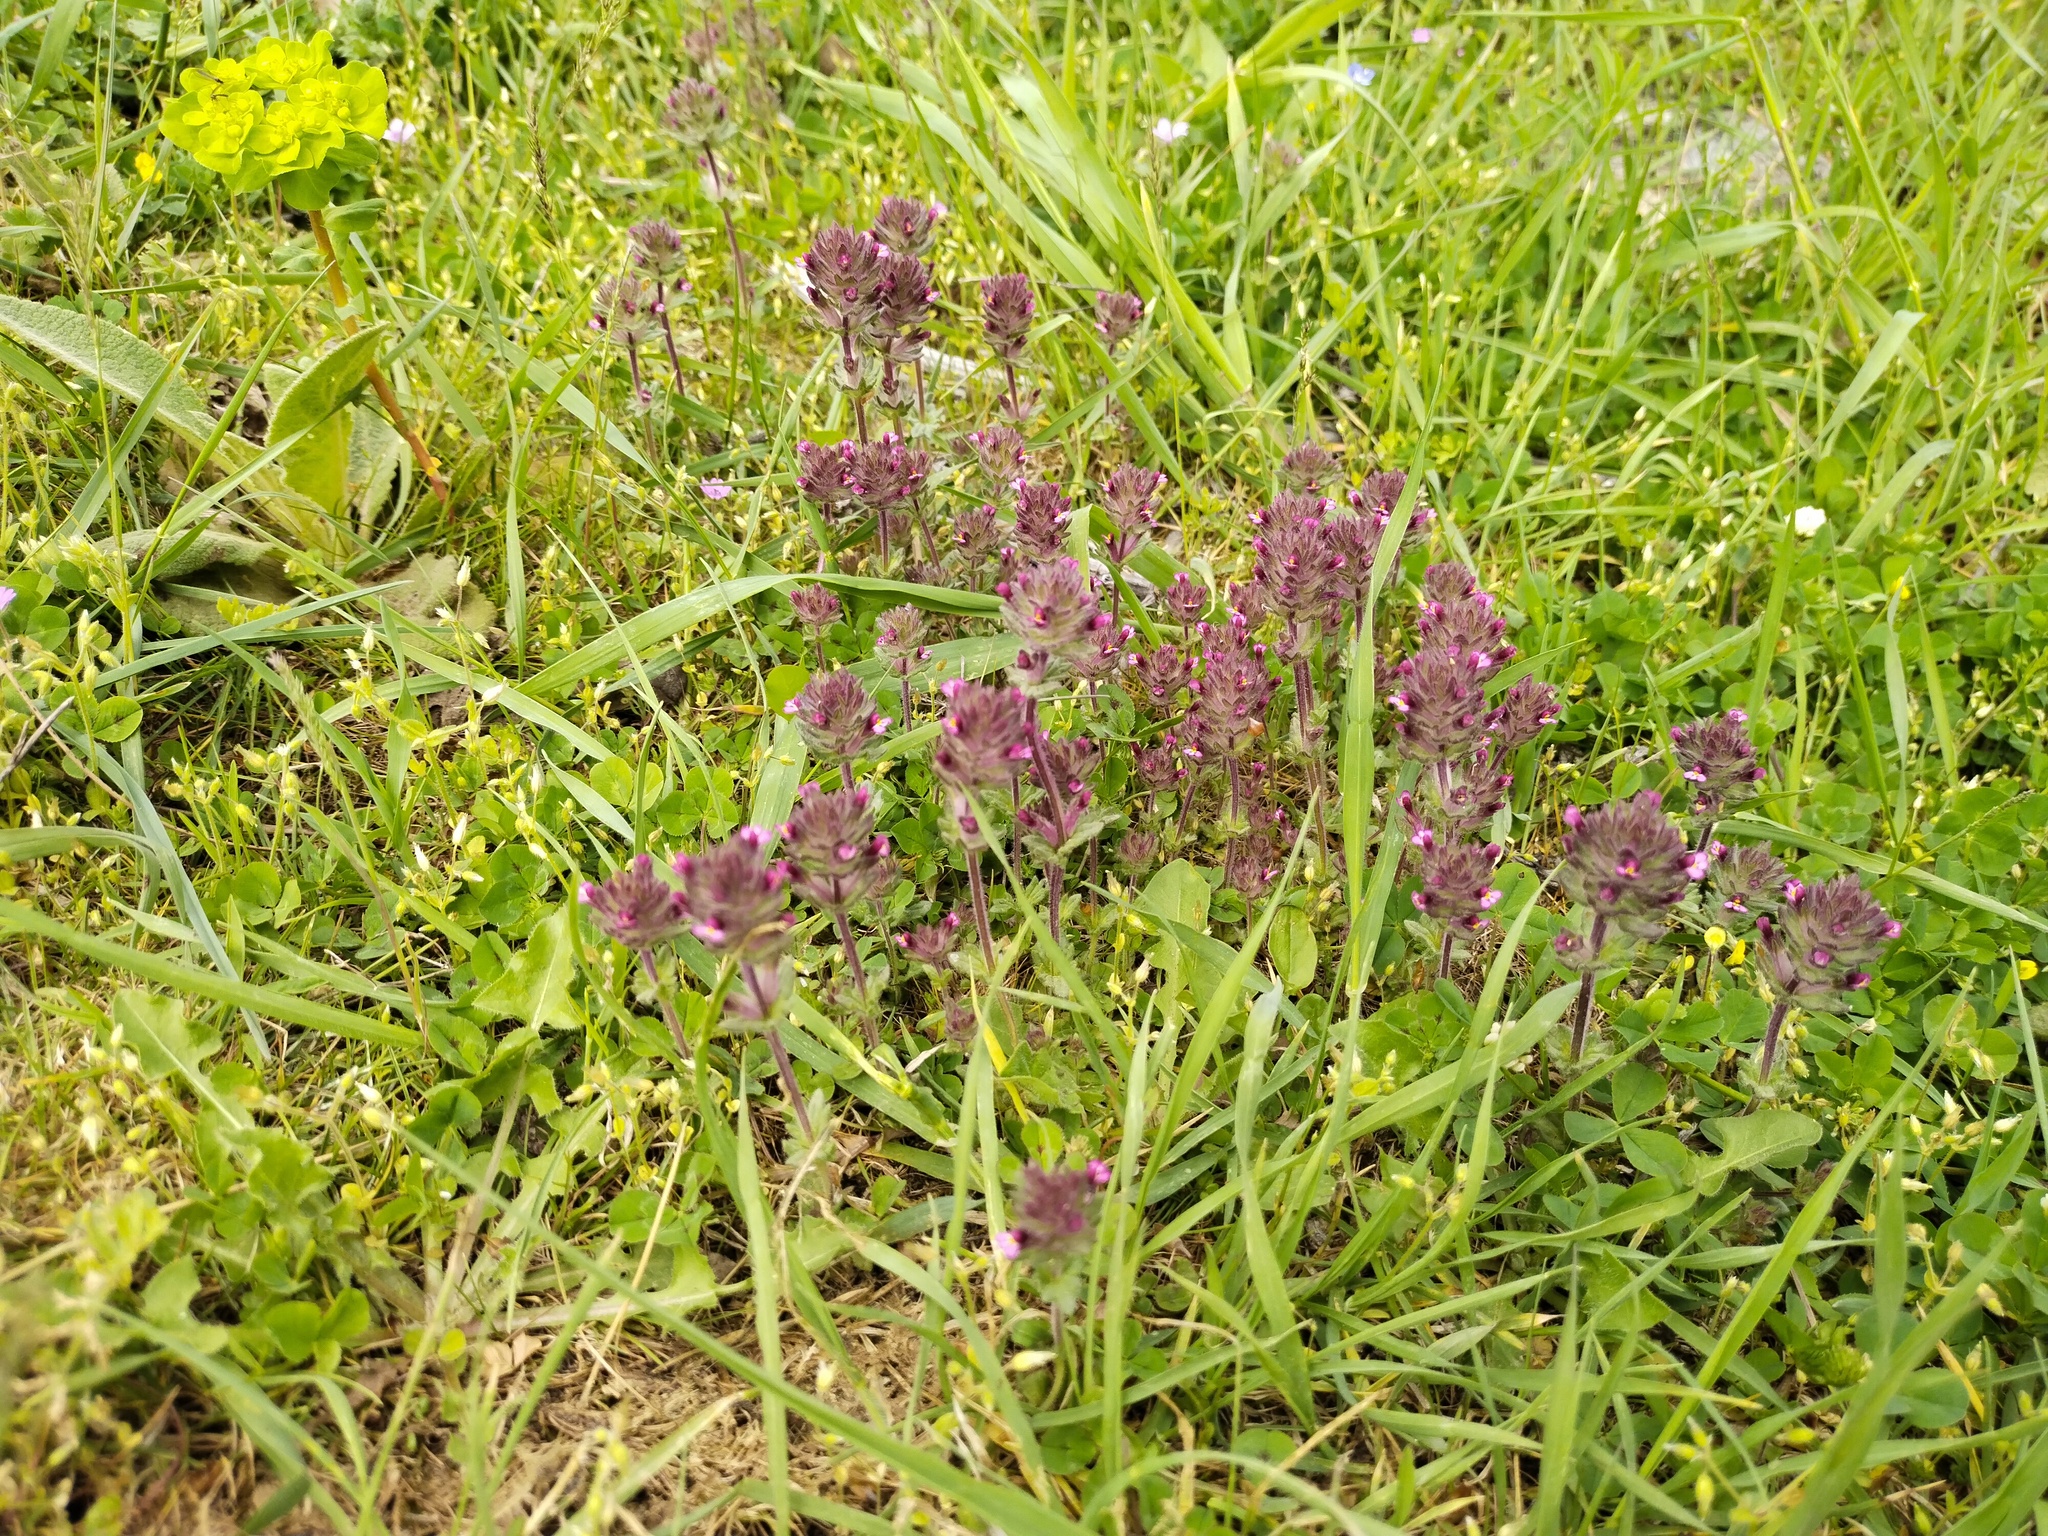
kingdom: Plantae
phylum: Tracheophyta
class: Magnoliopsida
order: Lamiales
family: Orobanchaceae
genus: Parentucellia
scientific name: Parentucellia latifolia
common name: Broadleaf glandweed
